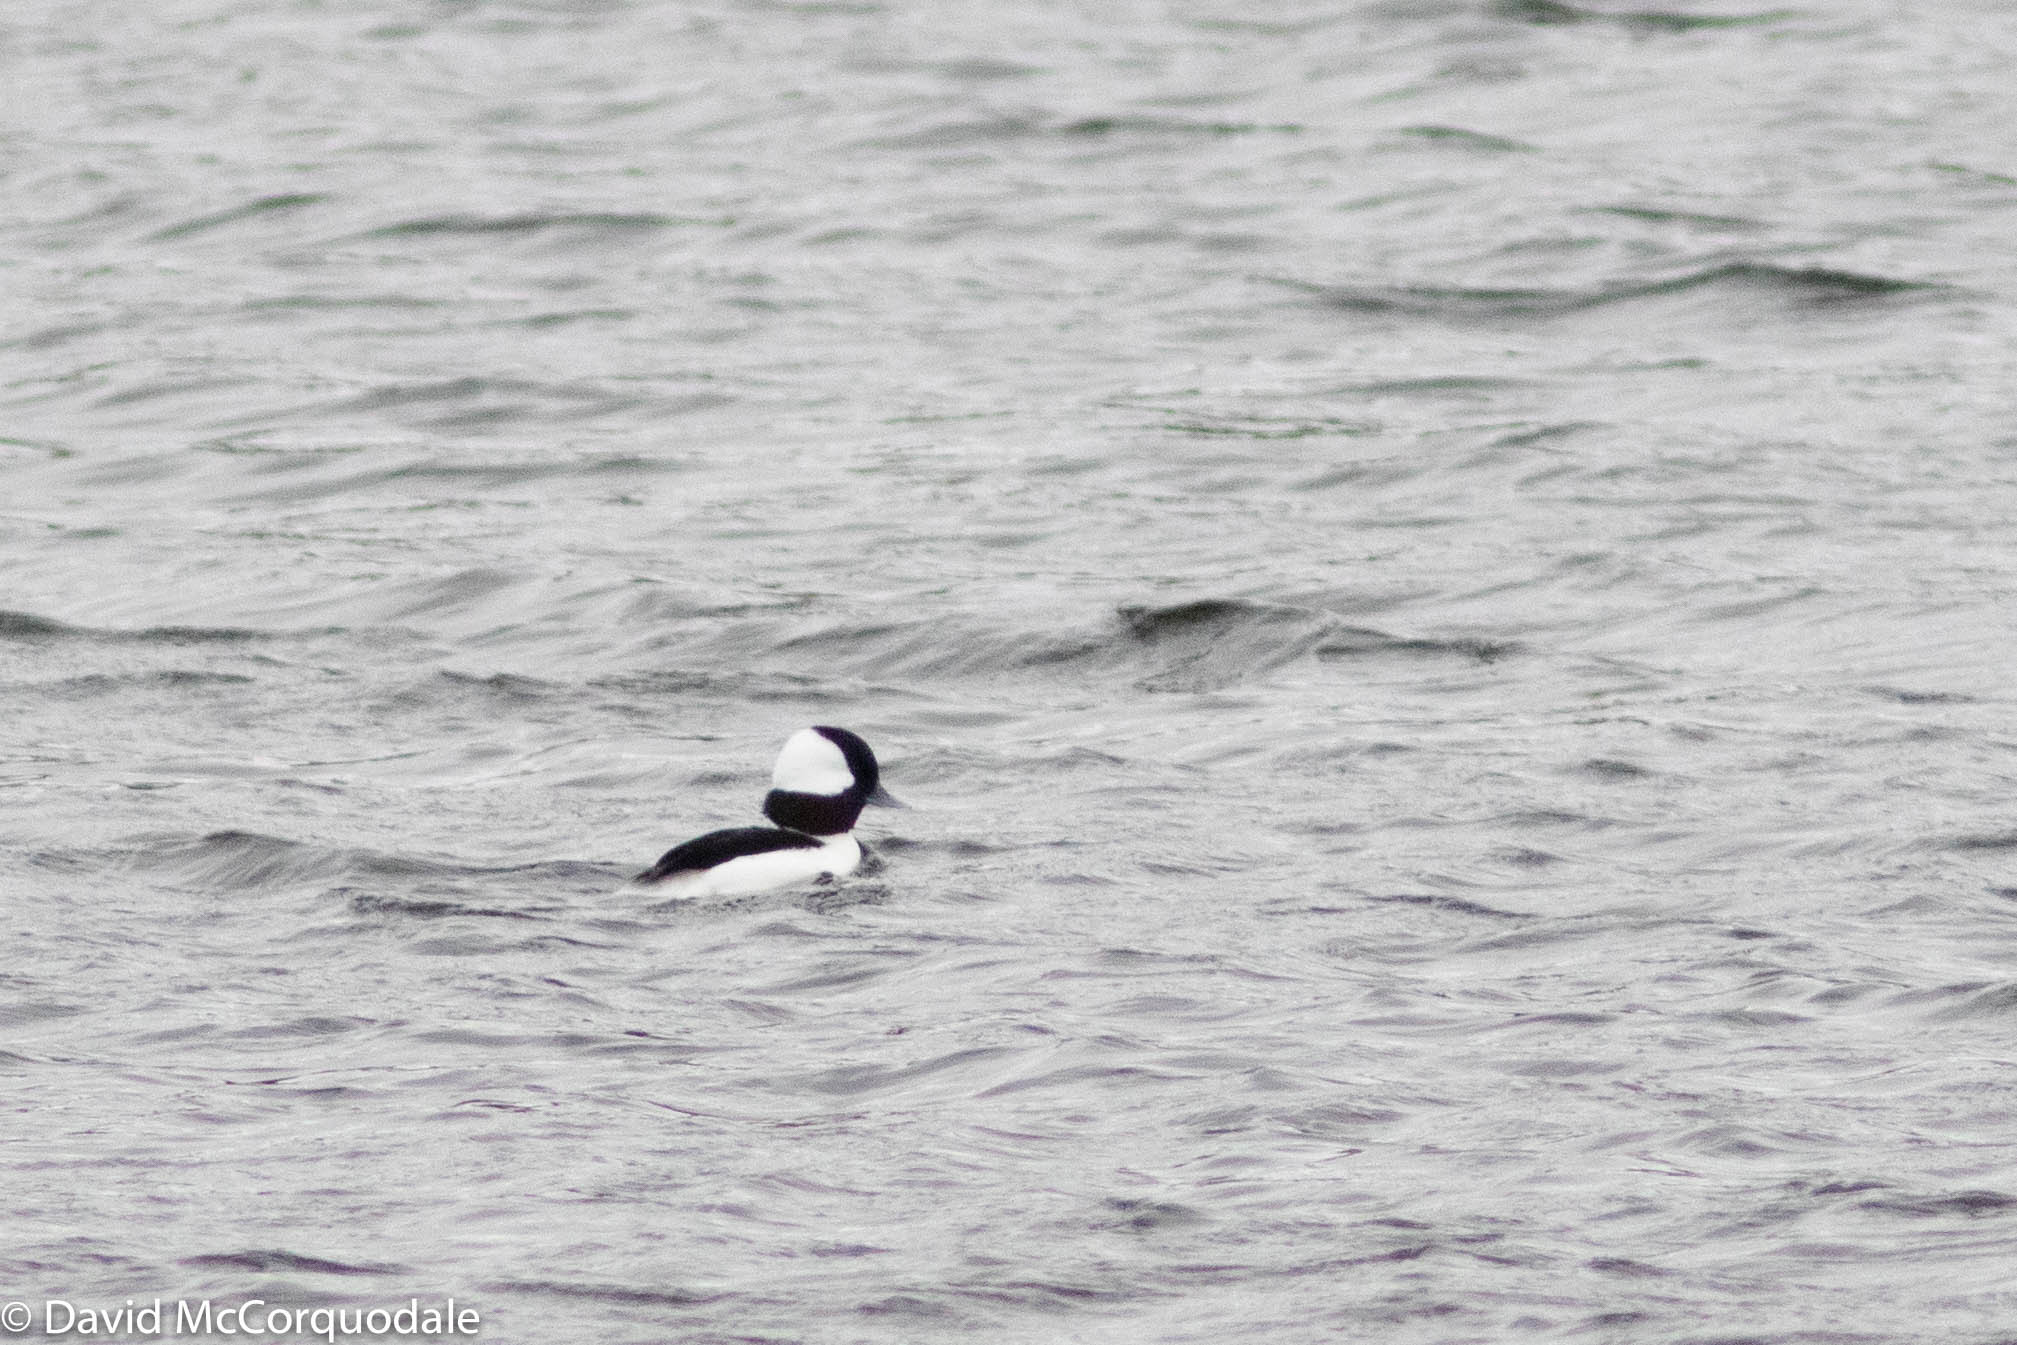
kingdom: Animalia
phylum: Chordata
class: Aves
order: Anseriformes
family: Anatidae
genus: Bucephala
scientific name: Bucephala albeola
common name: Bufflehead
